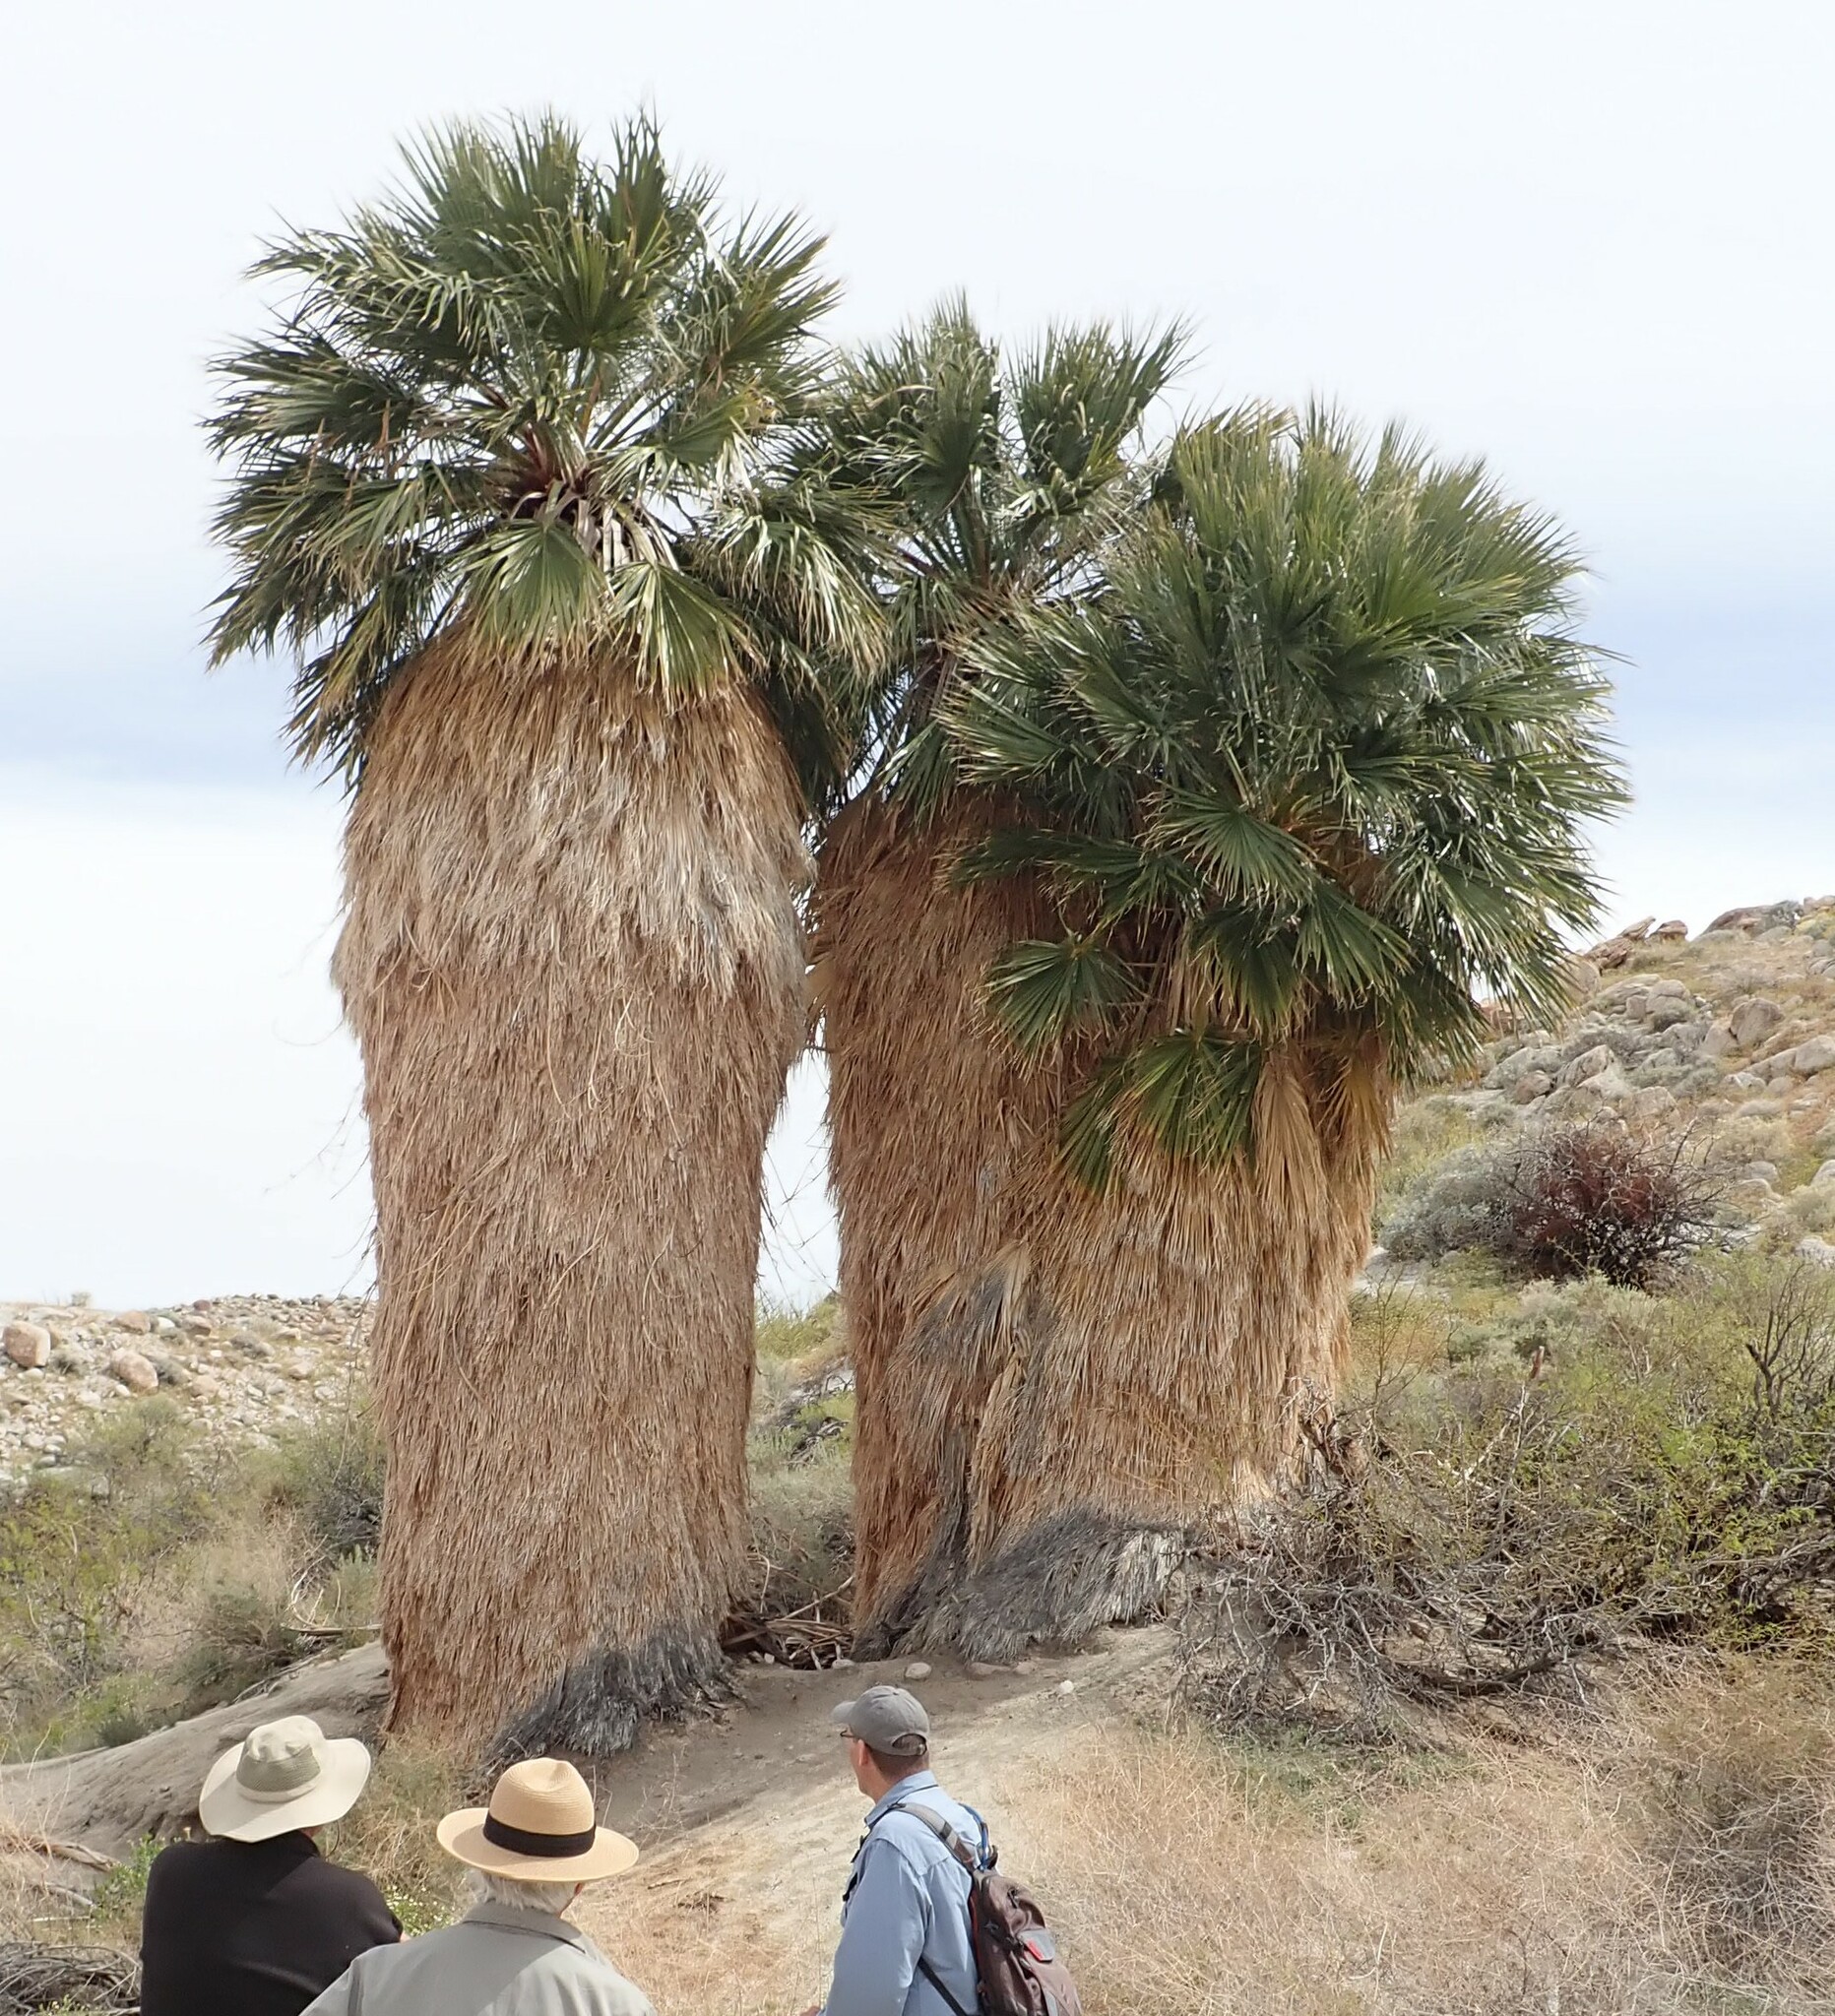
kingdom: Plantae
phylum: Tracheophyta
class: Liliopsida
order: Arecales
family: Arecaceae
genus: Washingtonia
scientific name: Washingtonia filifera
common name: California fan palm
